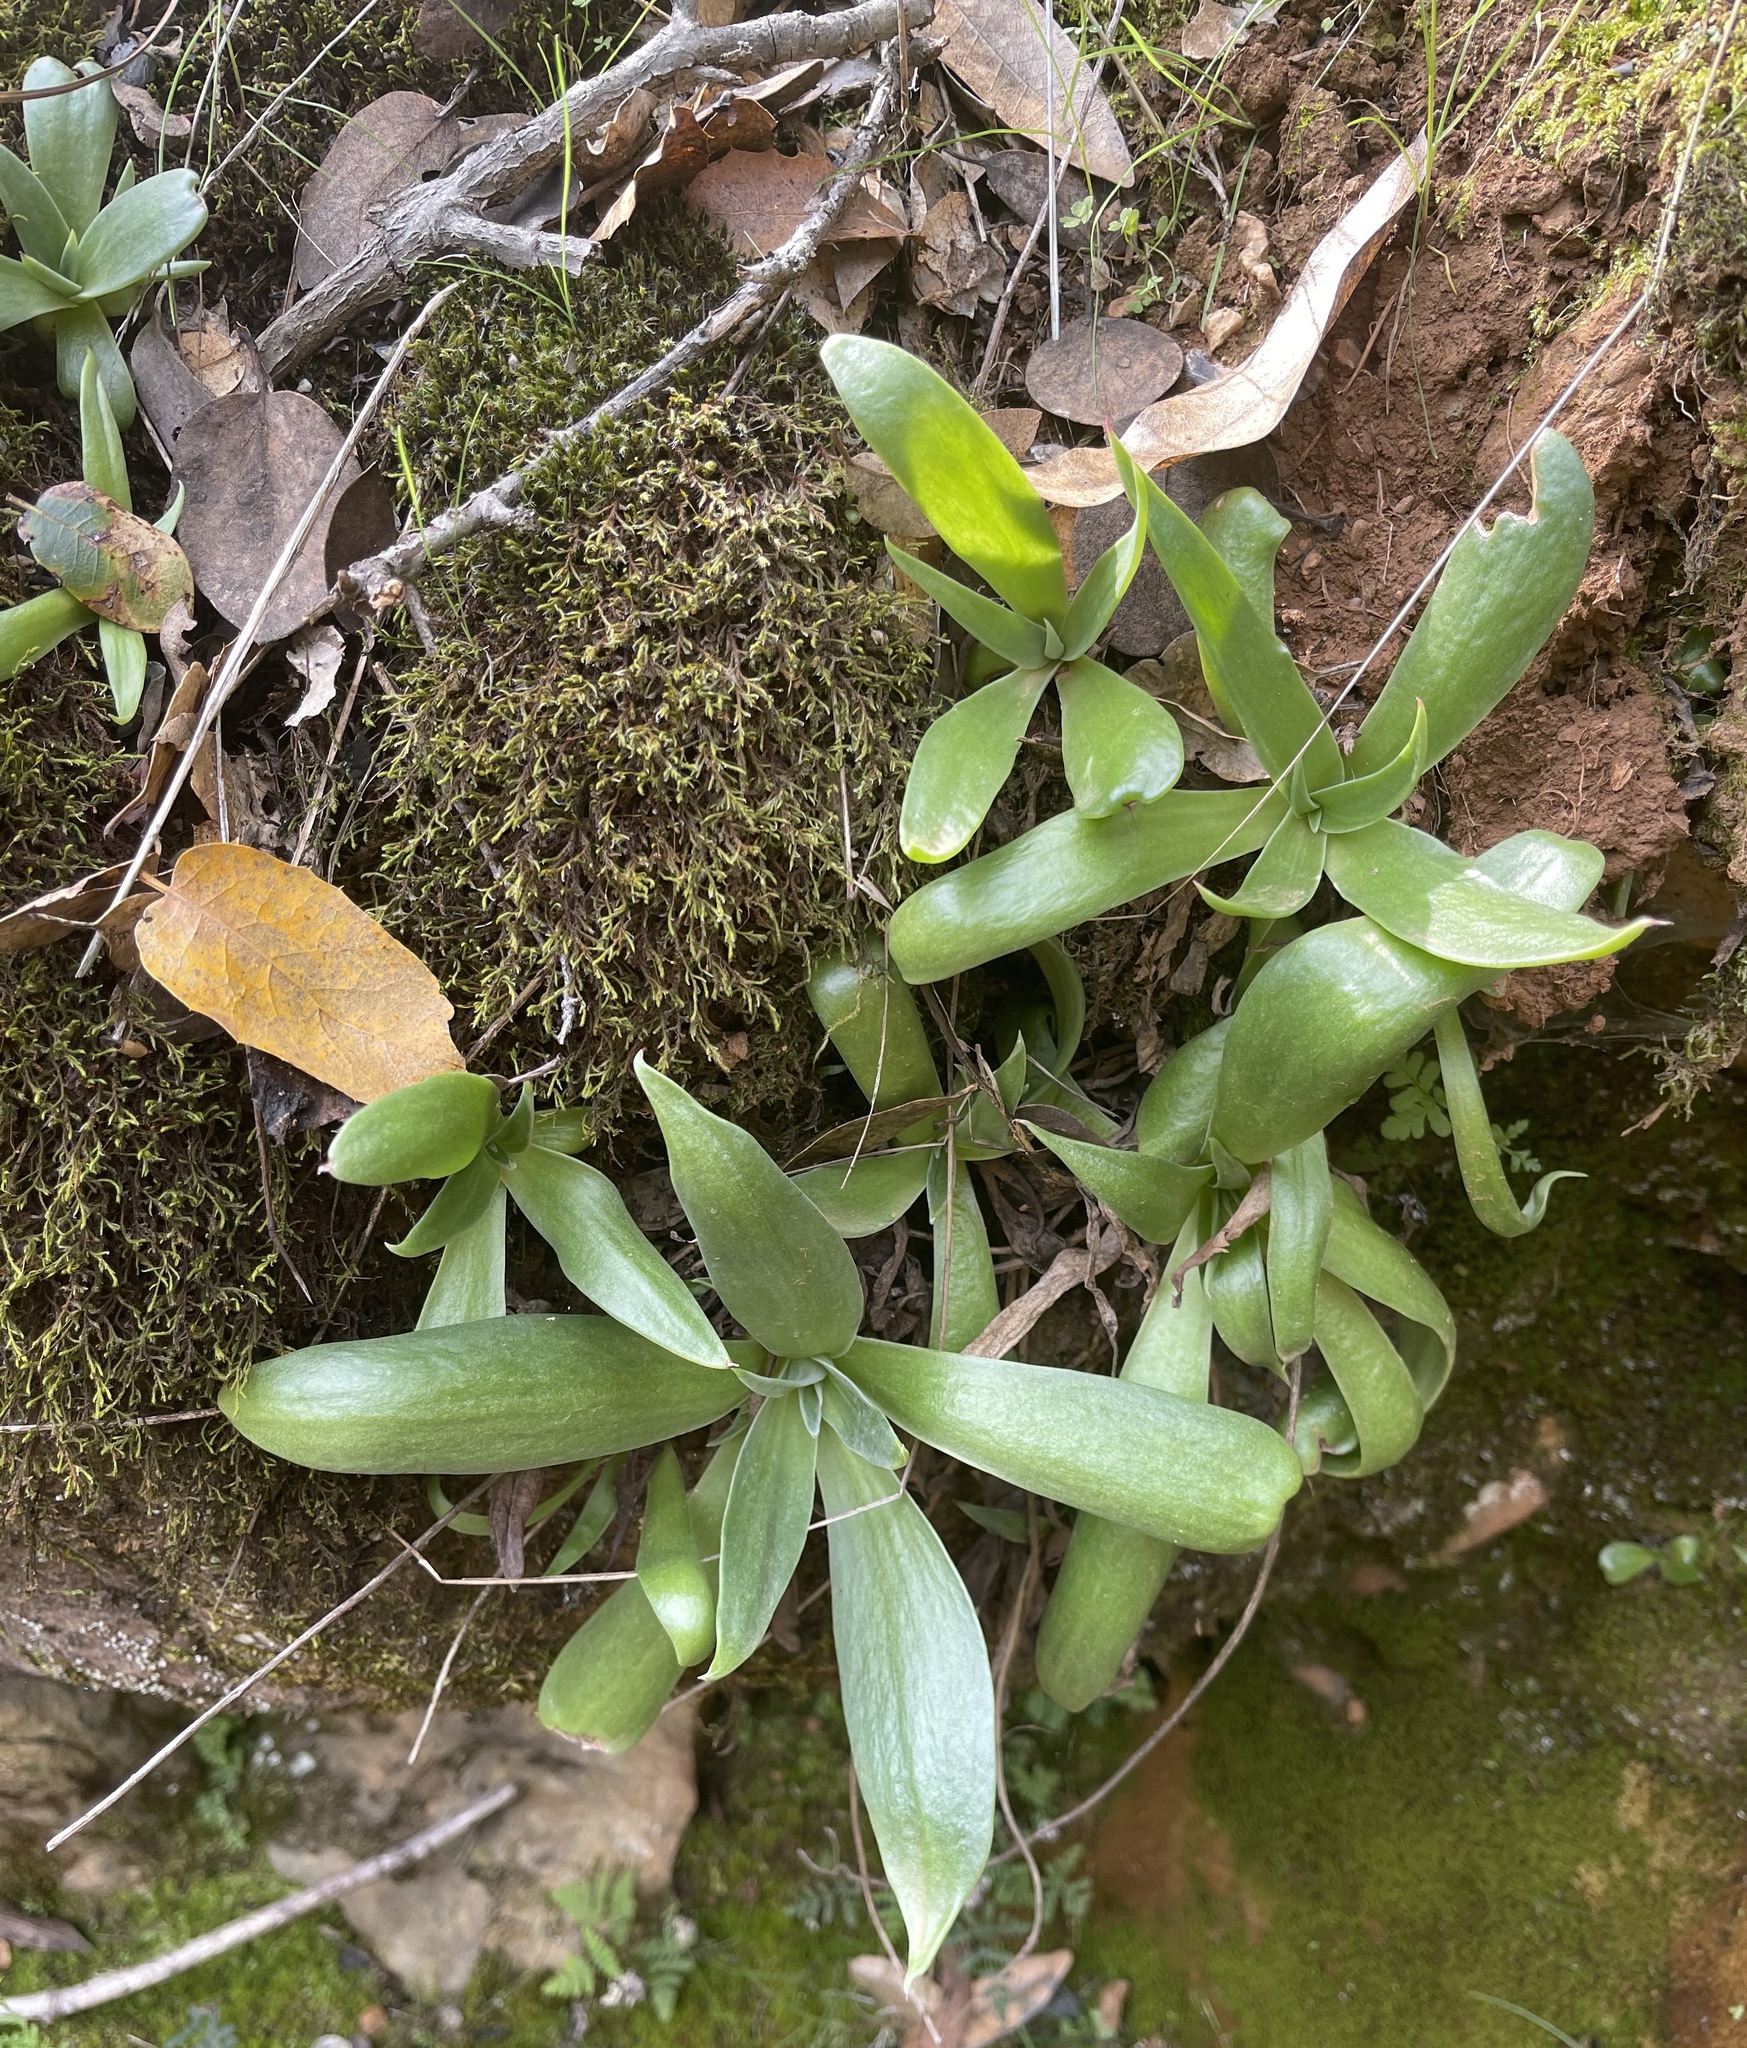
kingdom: Plantae
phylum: Tracheophyta
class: Magnoliopsida
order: Saxifragales
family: Crassulaceae
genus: Dudleya
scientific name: Dudleya cymosa
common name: Canyon dudleya
